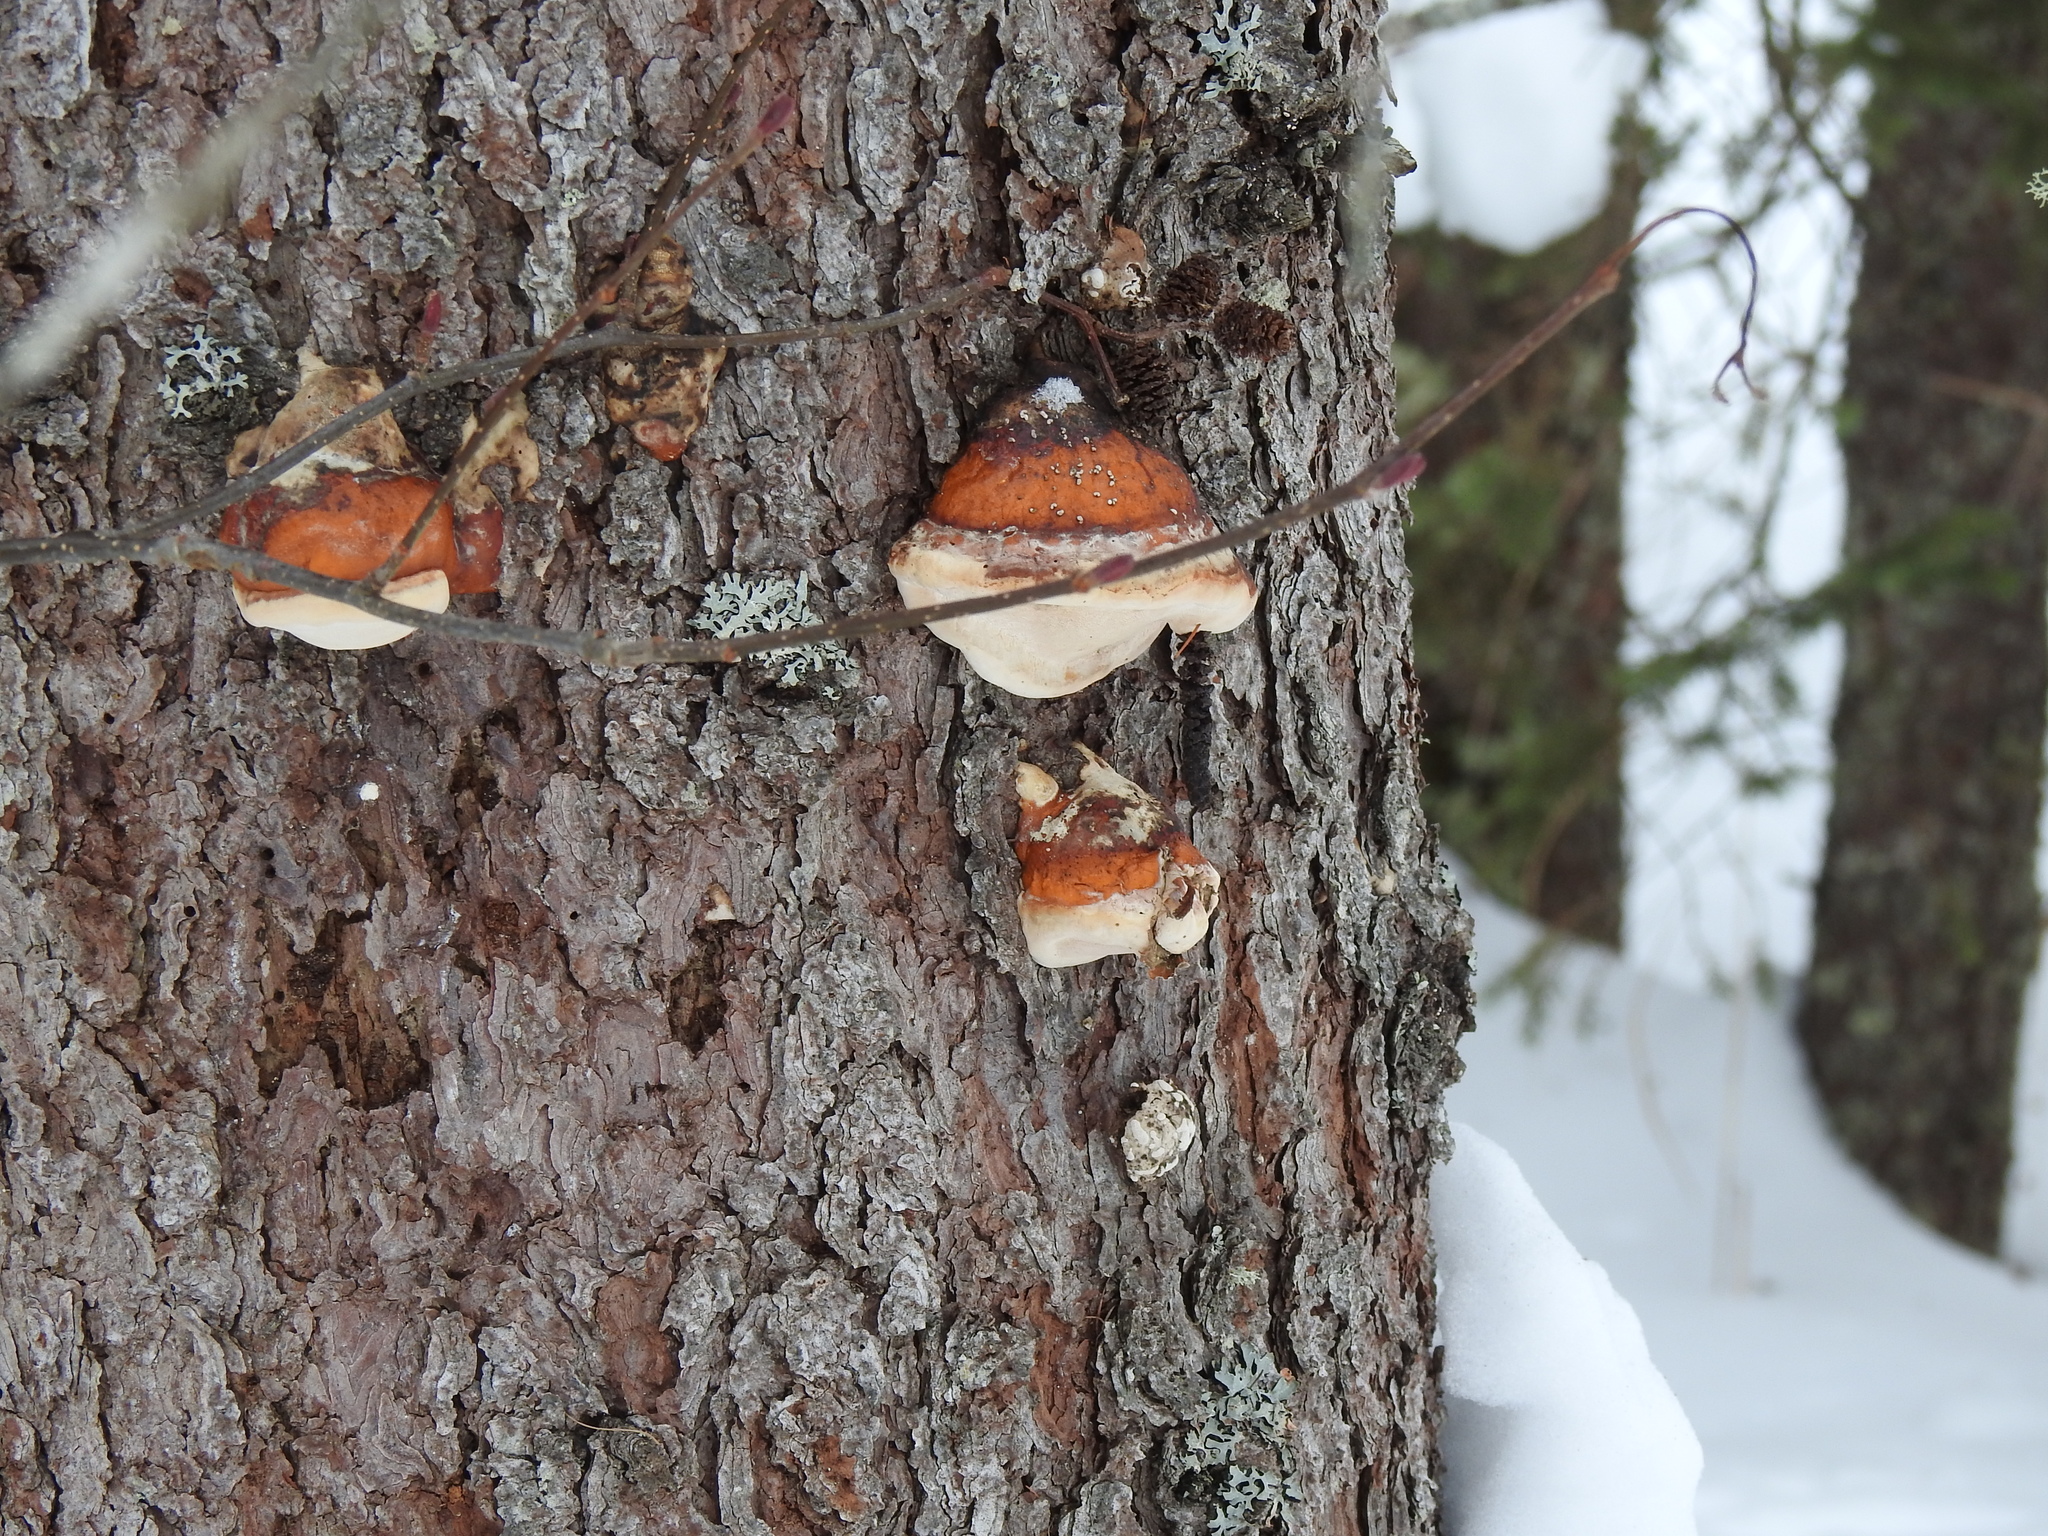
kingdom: Fungi
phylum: Basidiomycota
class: Agaricomycetes
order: Polyporales
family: Fomitopsidaceae
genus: Fomitopsis
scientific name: Fomitopsis
